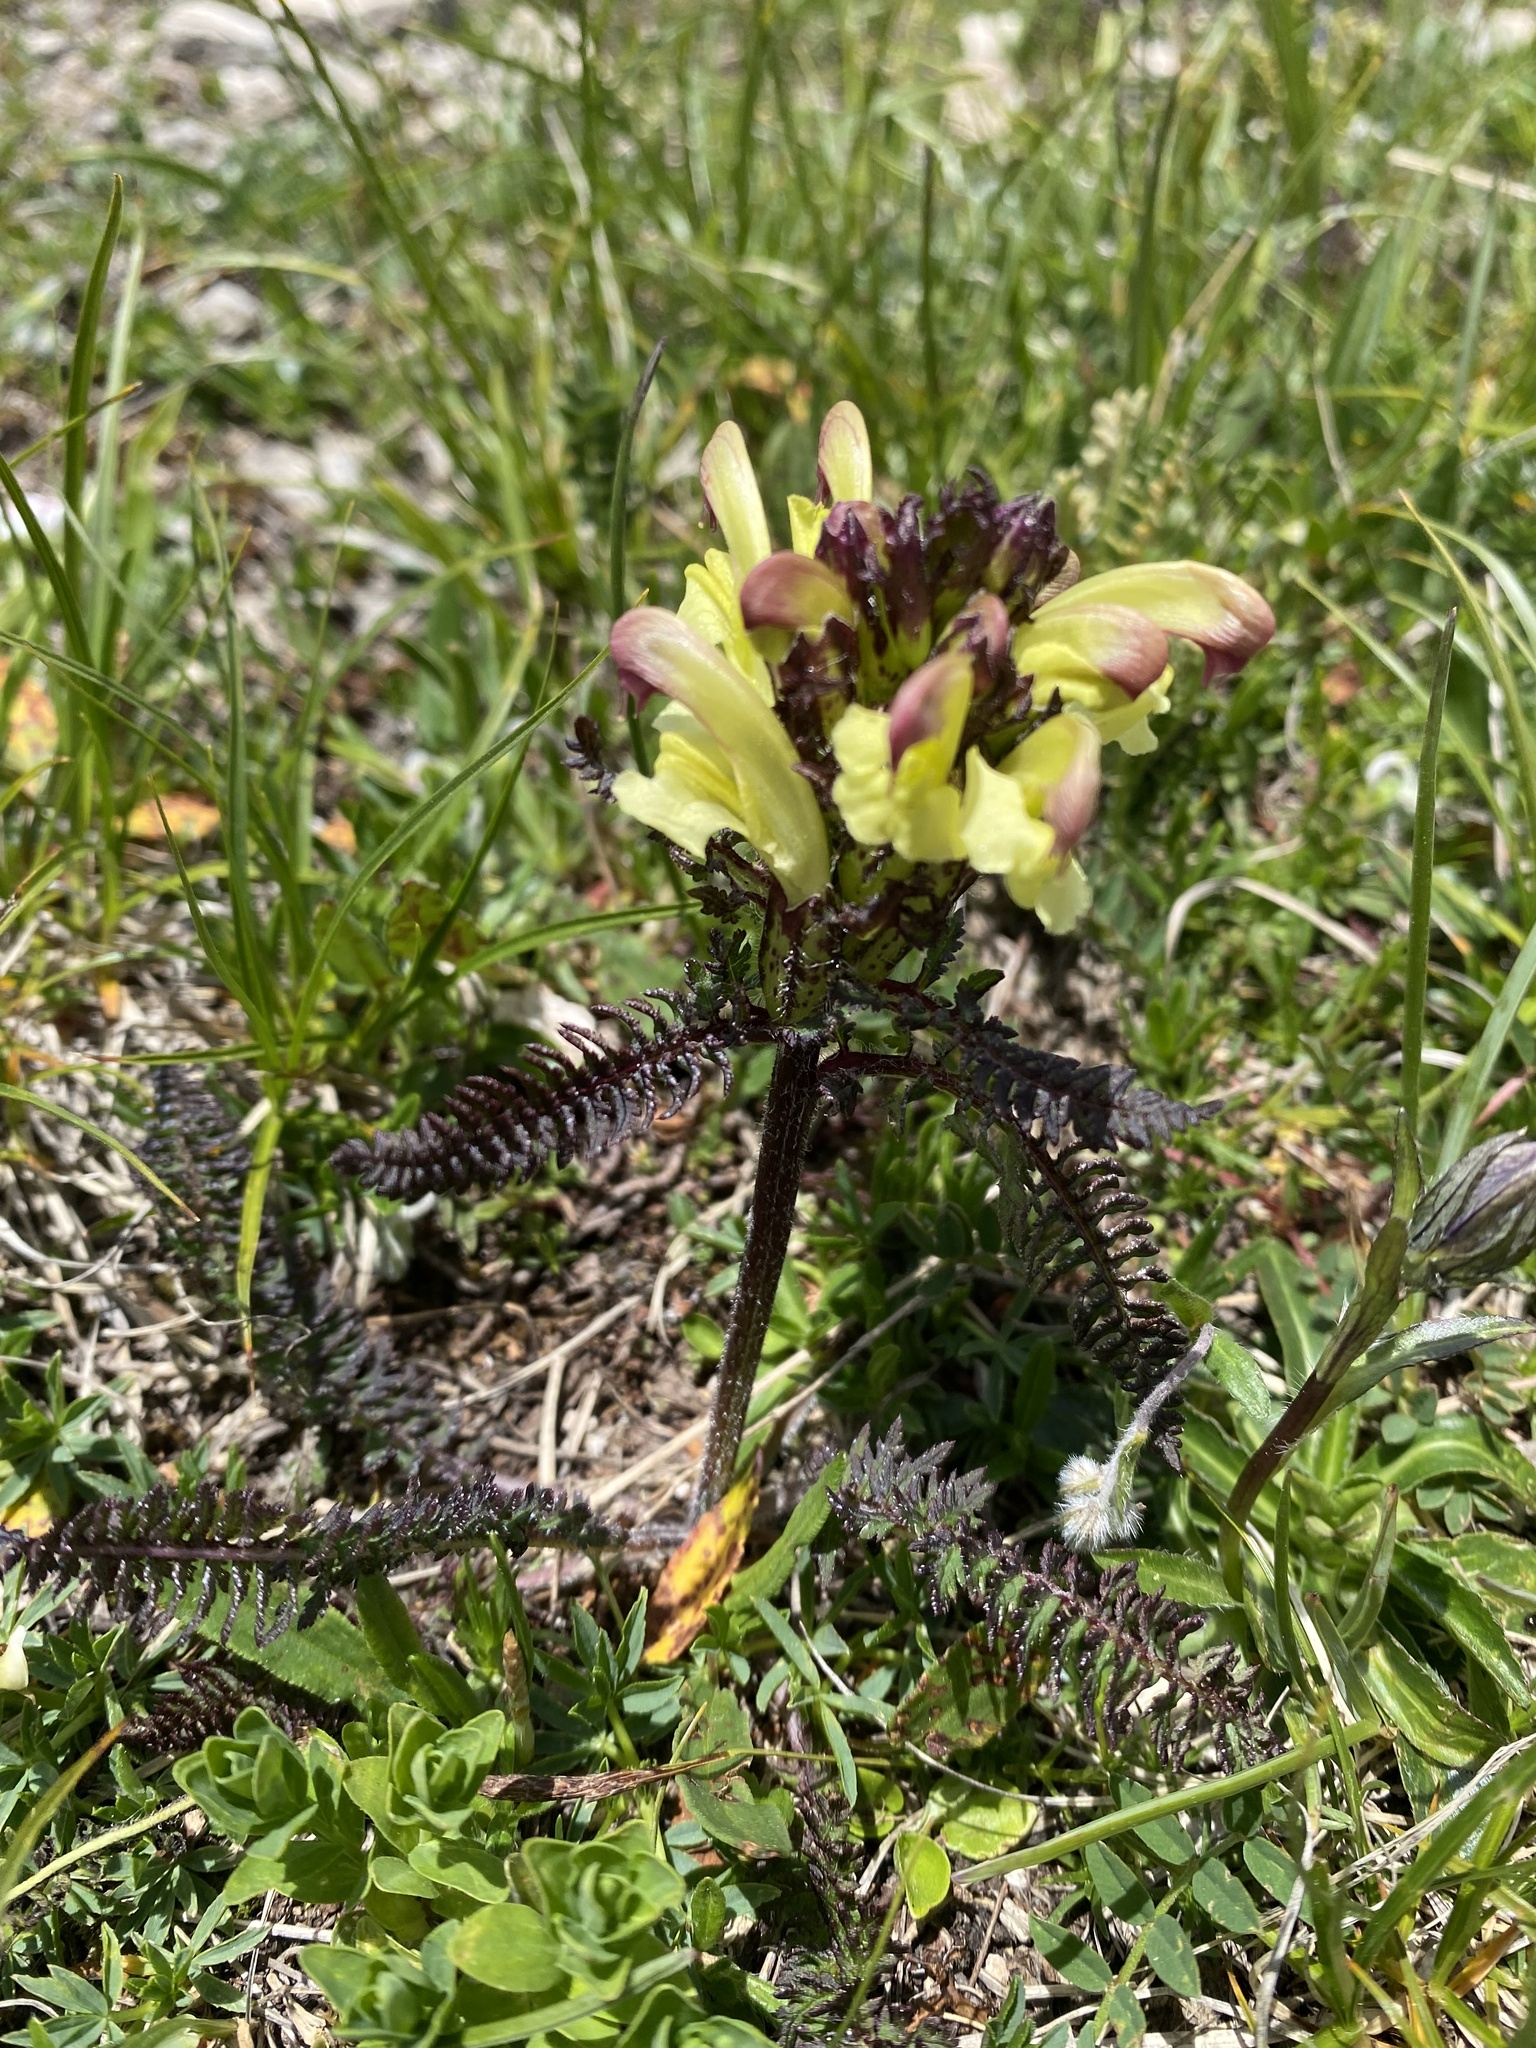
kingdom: Plantae
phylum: Tracheophyta
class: Magnoliopsida
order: Lamiales
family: Orobanchaceae
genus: Pedicularis
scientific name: Pedicularis chroorrhyncha
